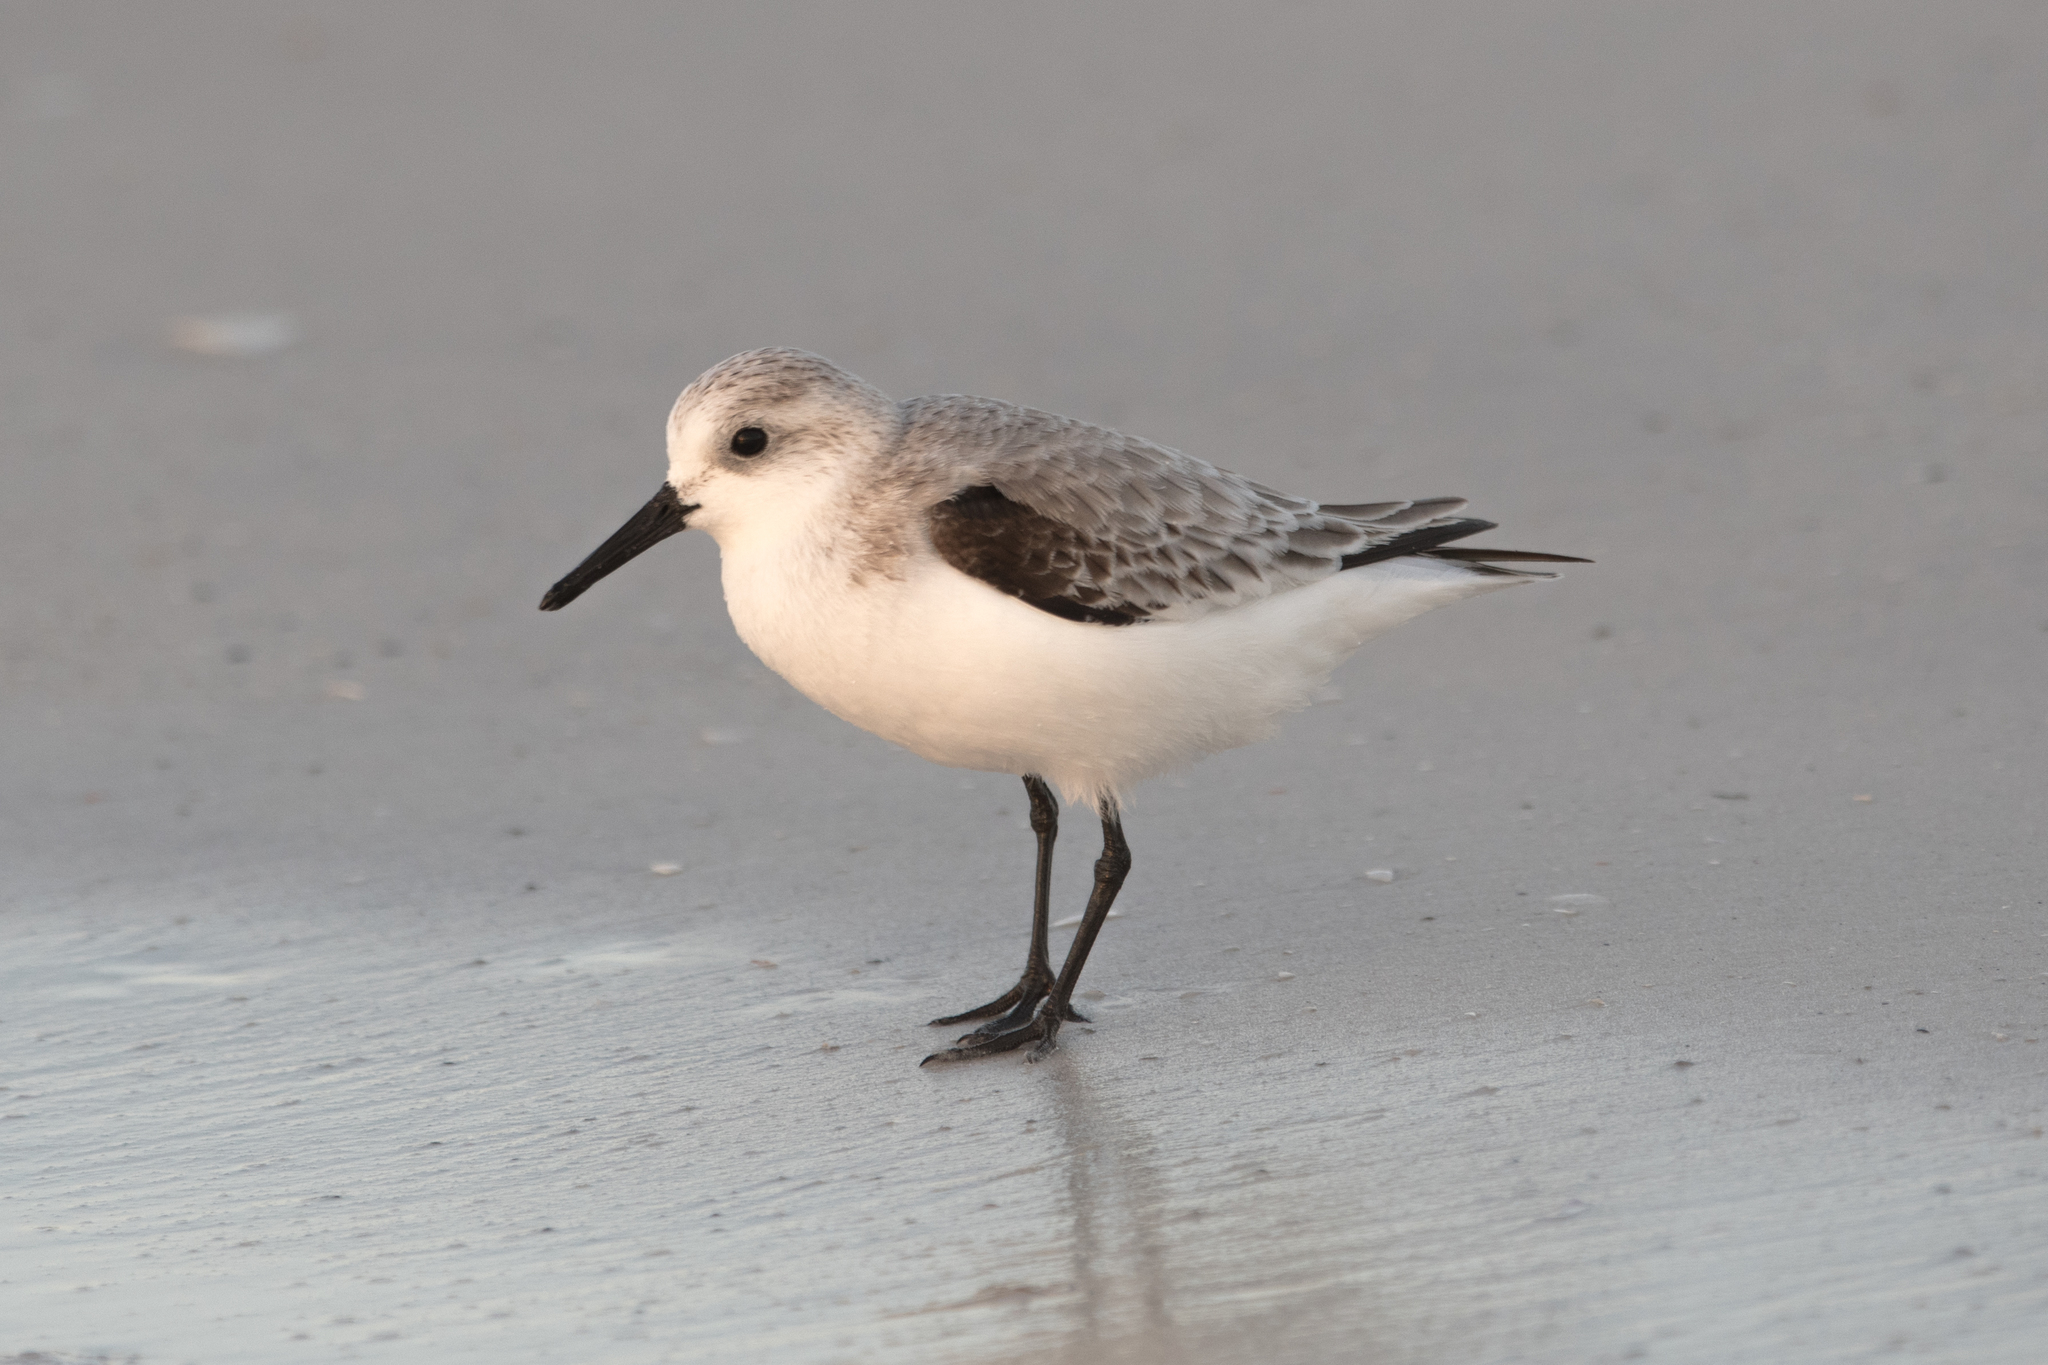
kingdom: Animalia
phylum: Chordata
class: Aves
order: Charadriiformes
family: Scolopacidae
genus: Calidris
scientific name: Calidris alba
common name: Sanderling
